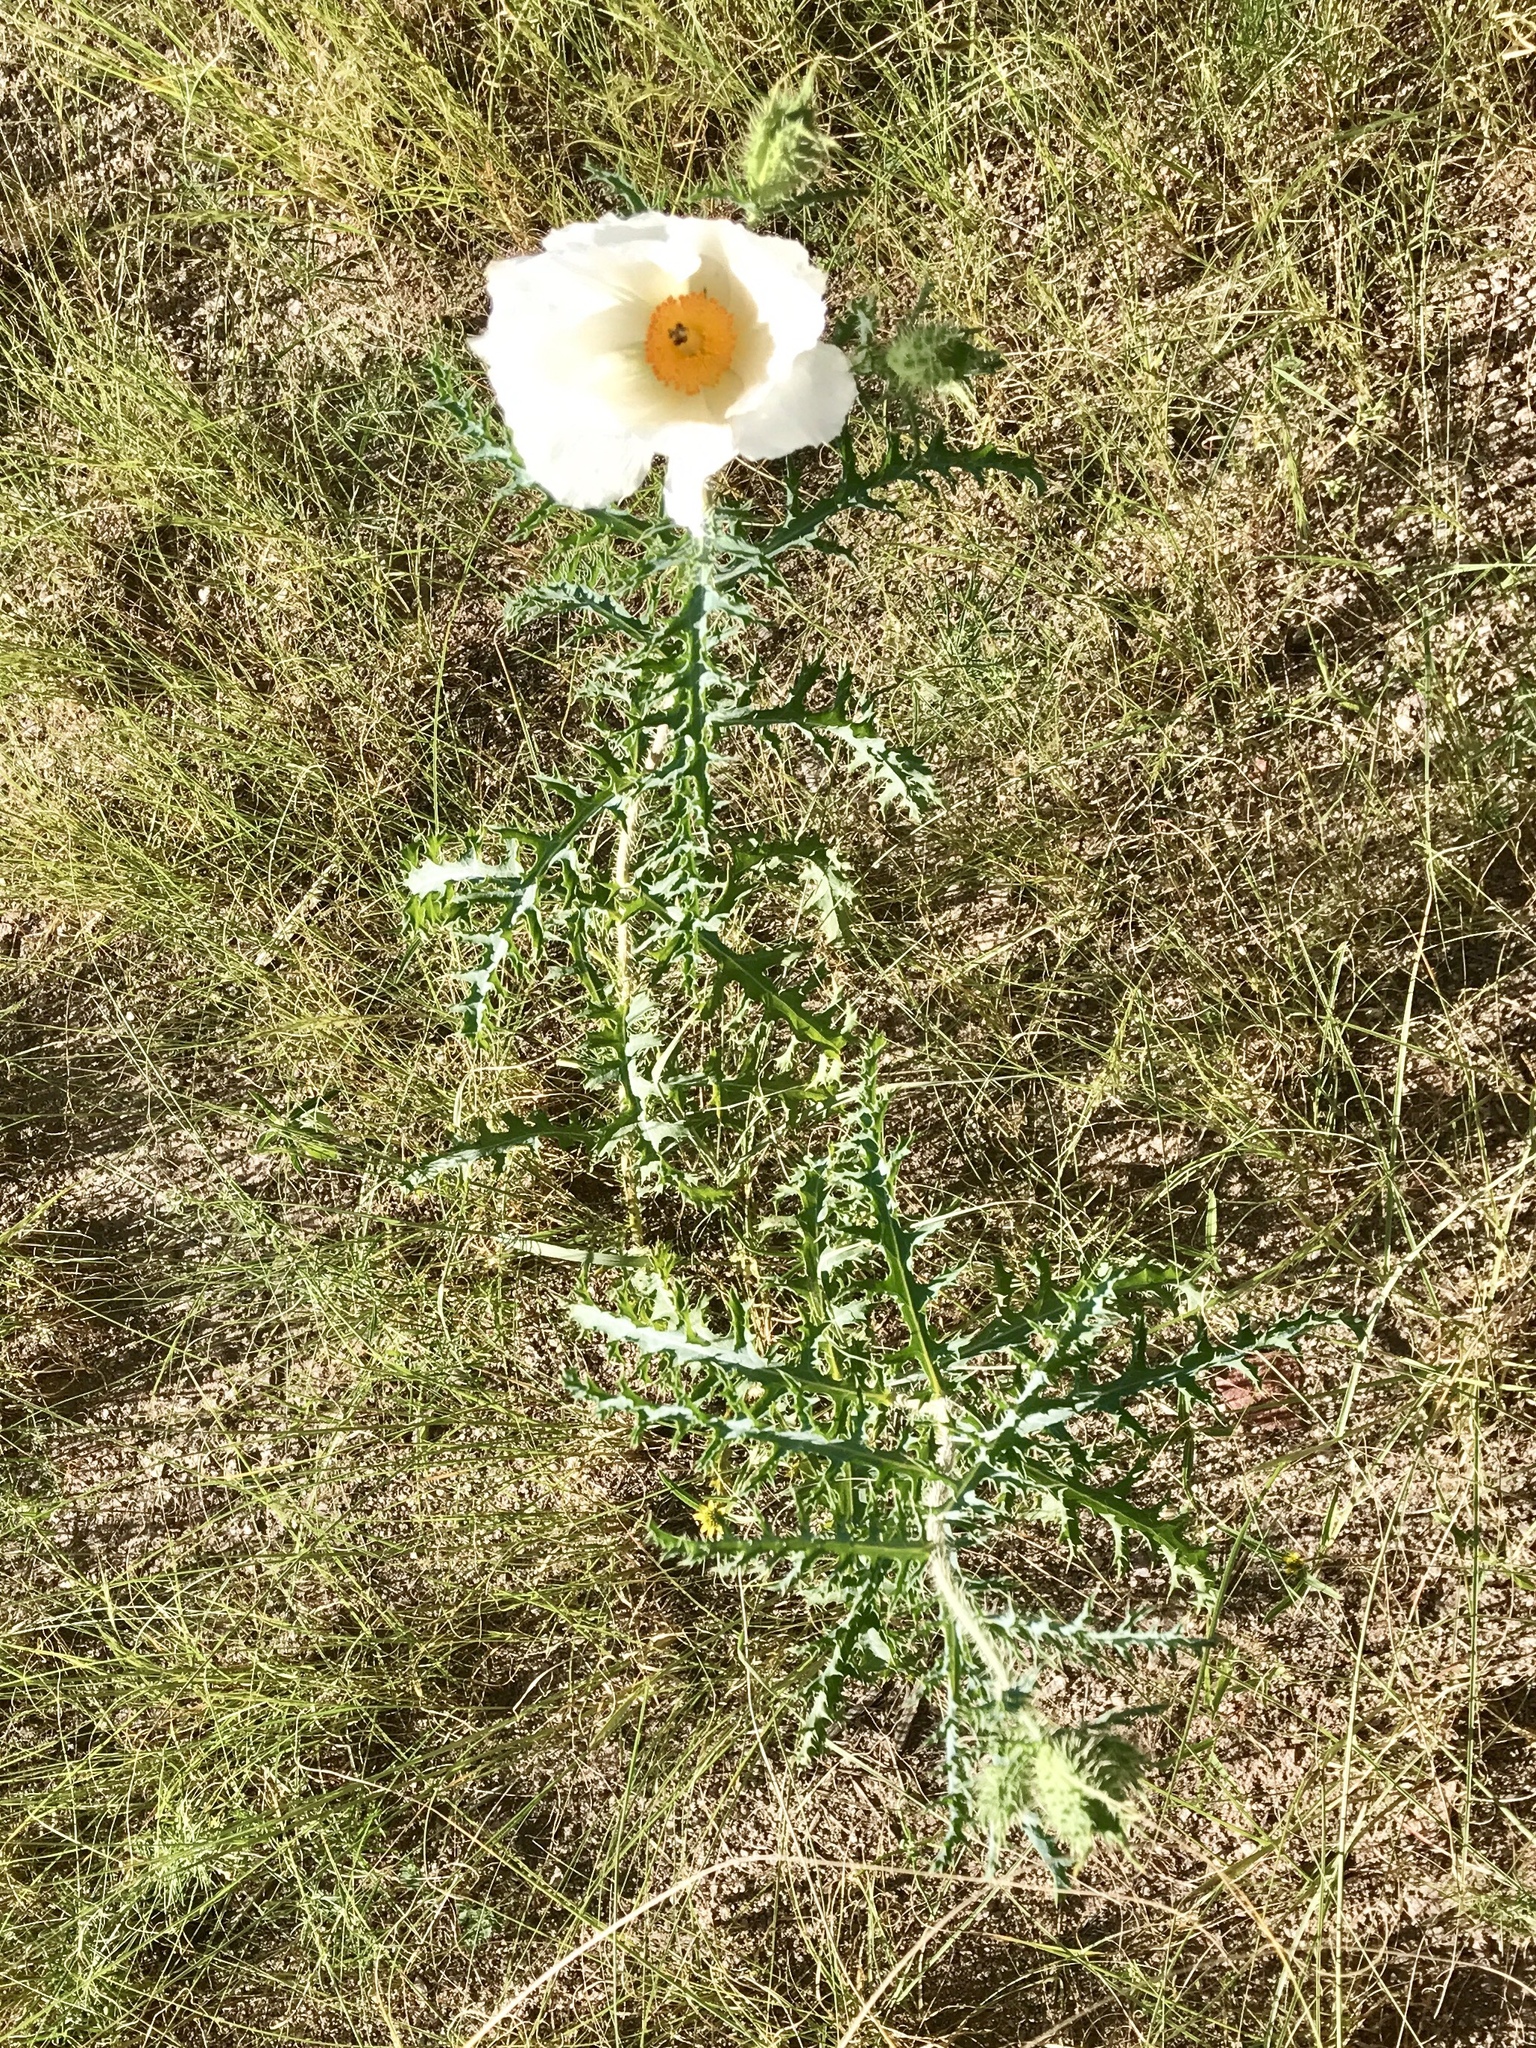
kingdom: Plantae
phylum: Tracheophyta
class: Magnoliopsida
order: Ranunculales
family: Papaveraceae
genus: Argemone
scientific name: Argemone pleiacantha
